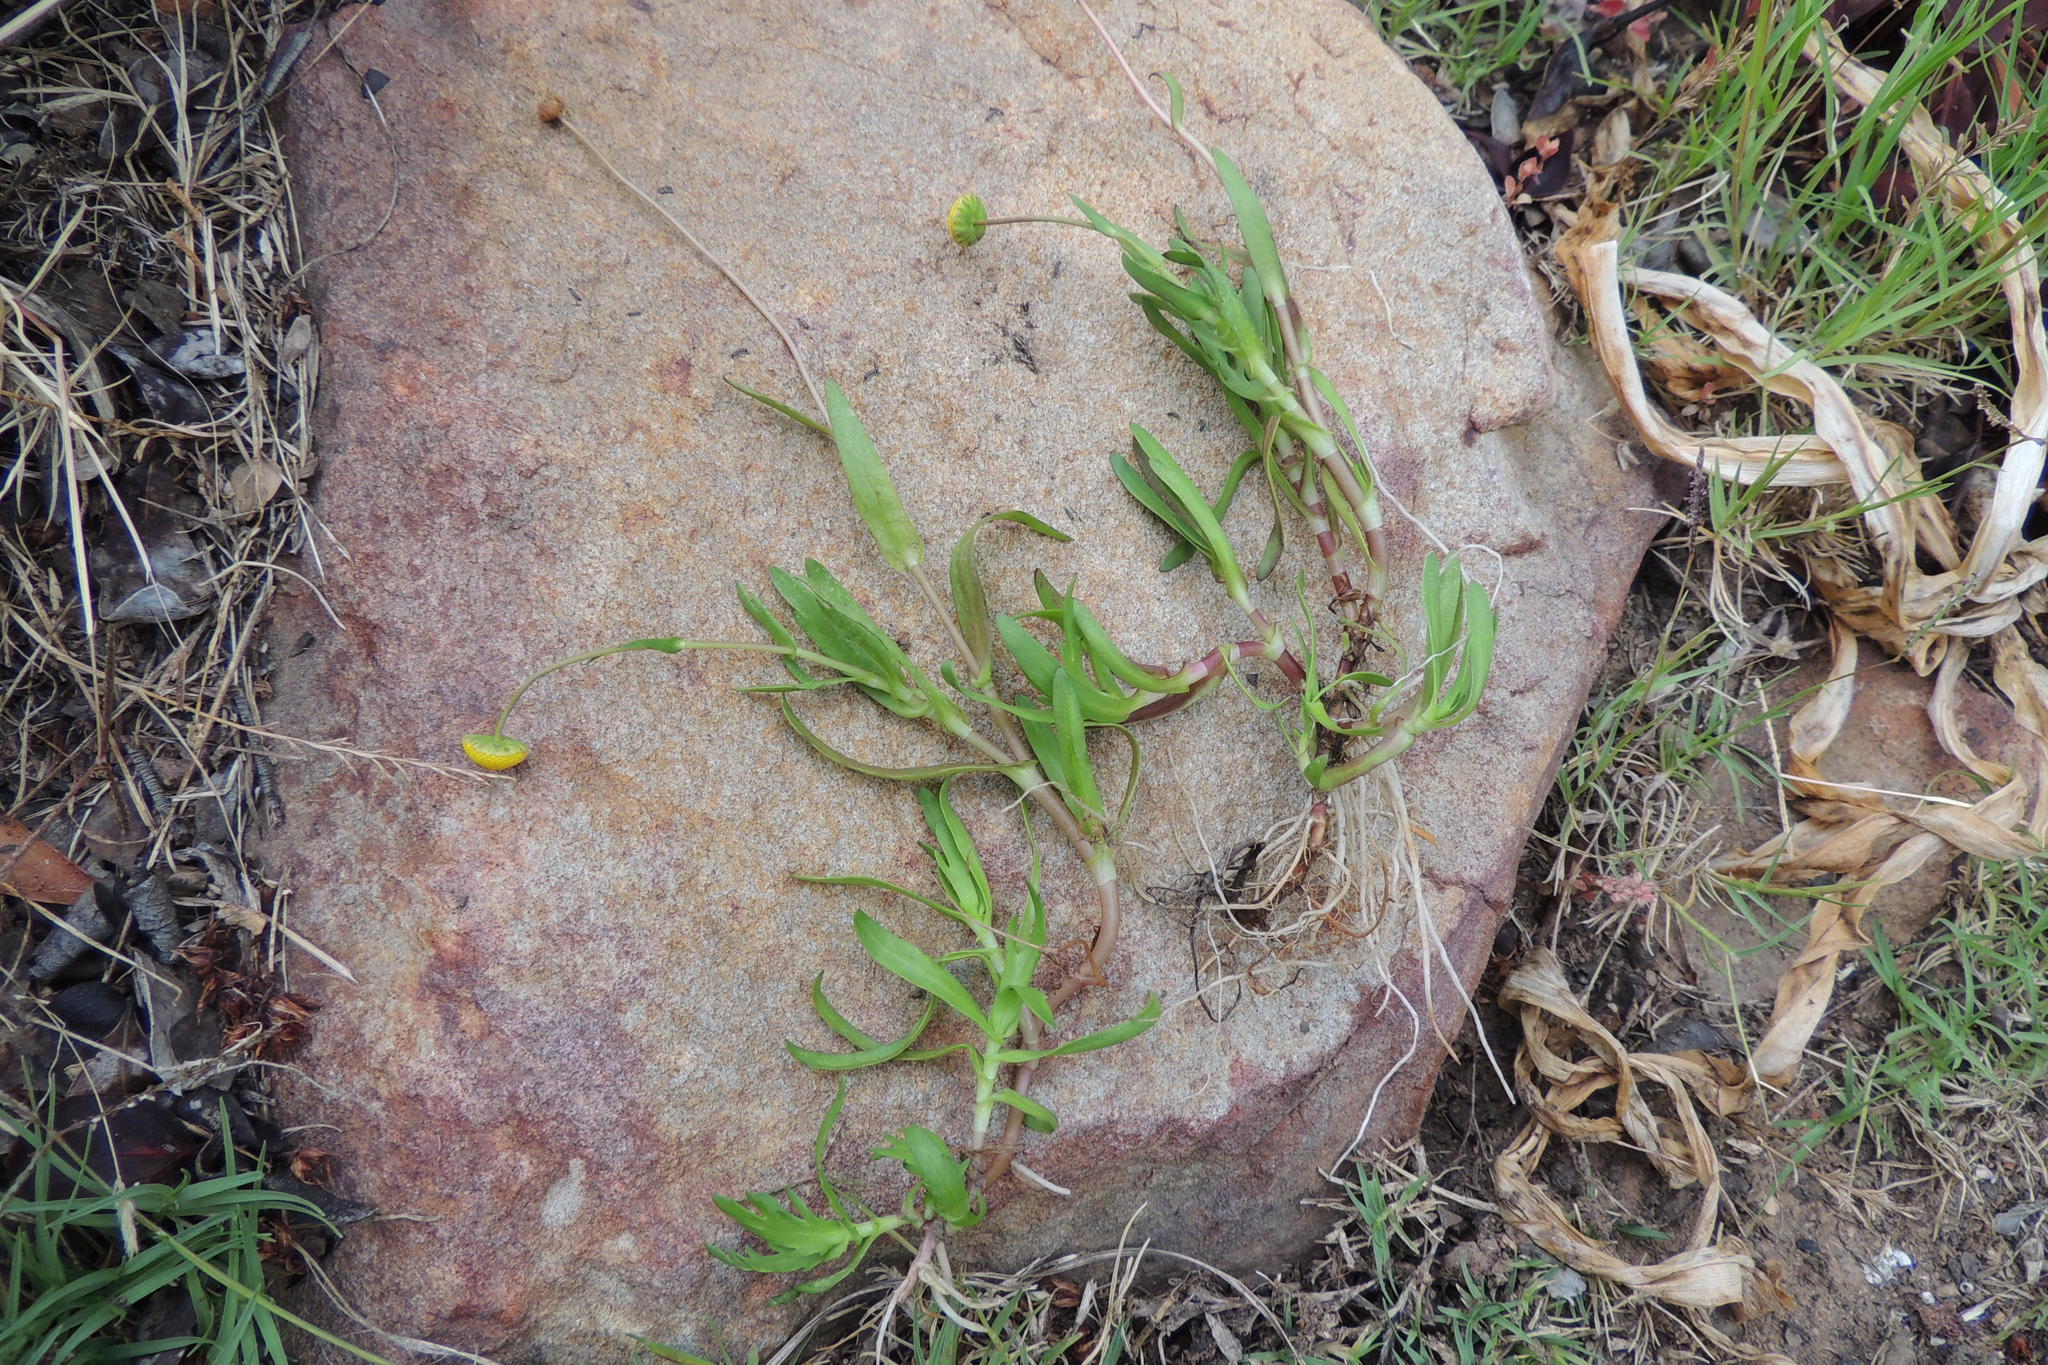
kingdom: Plantae
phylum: Tracheophyta
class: Magnoliopsida
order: Asterales
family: Asteraceae
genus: Cotula
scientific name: Cotula coronopifolia
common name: Buttonweed
